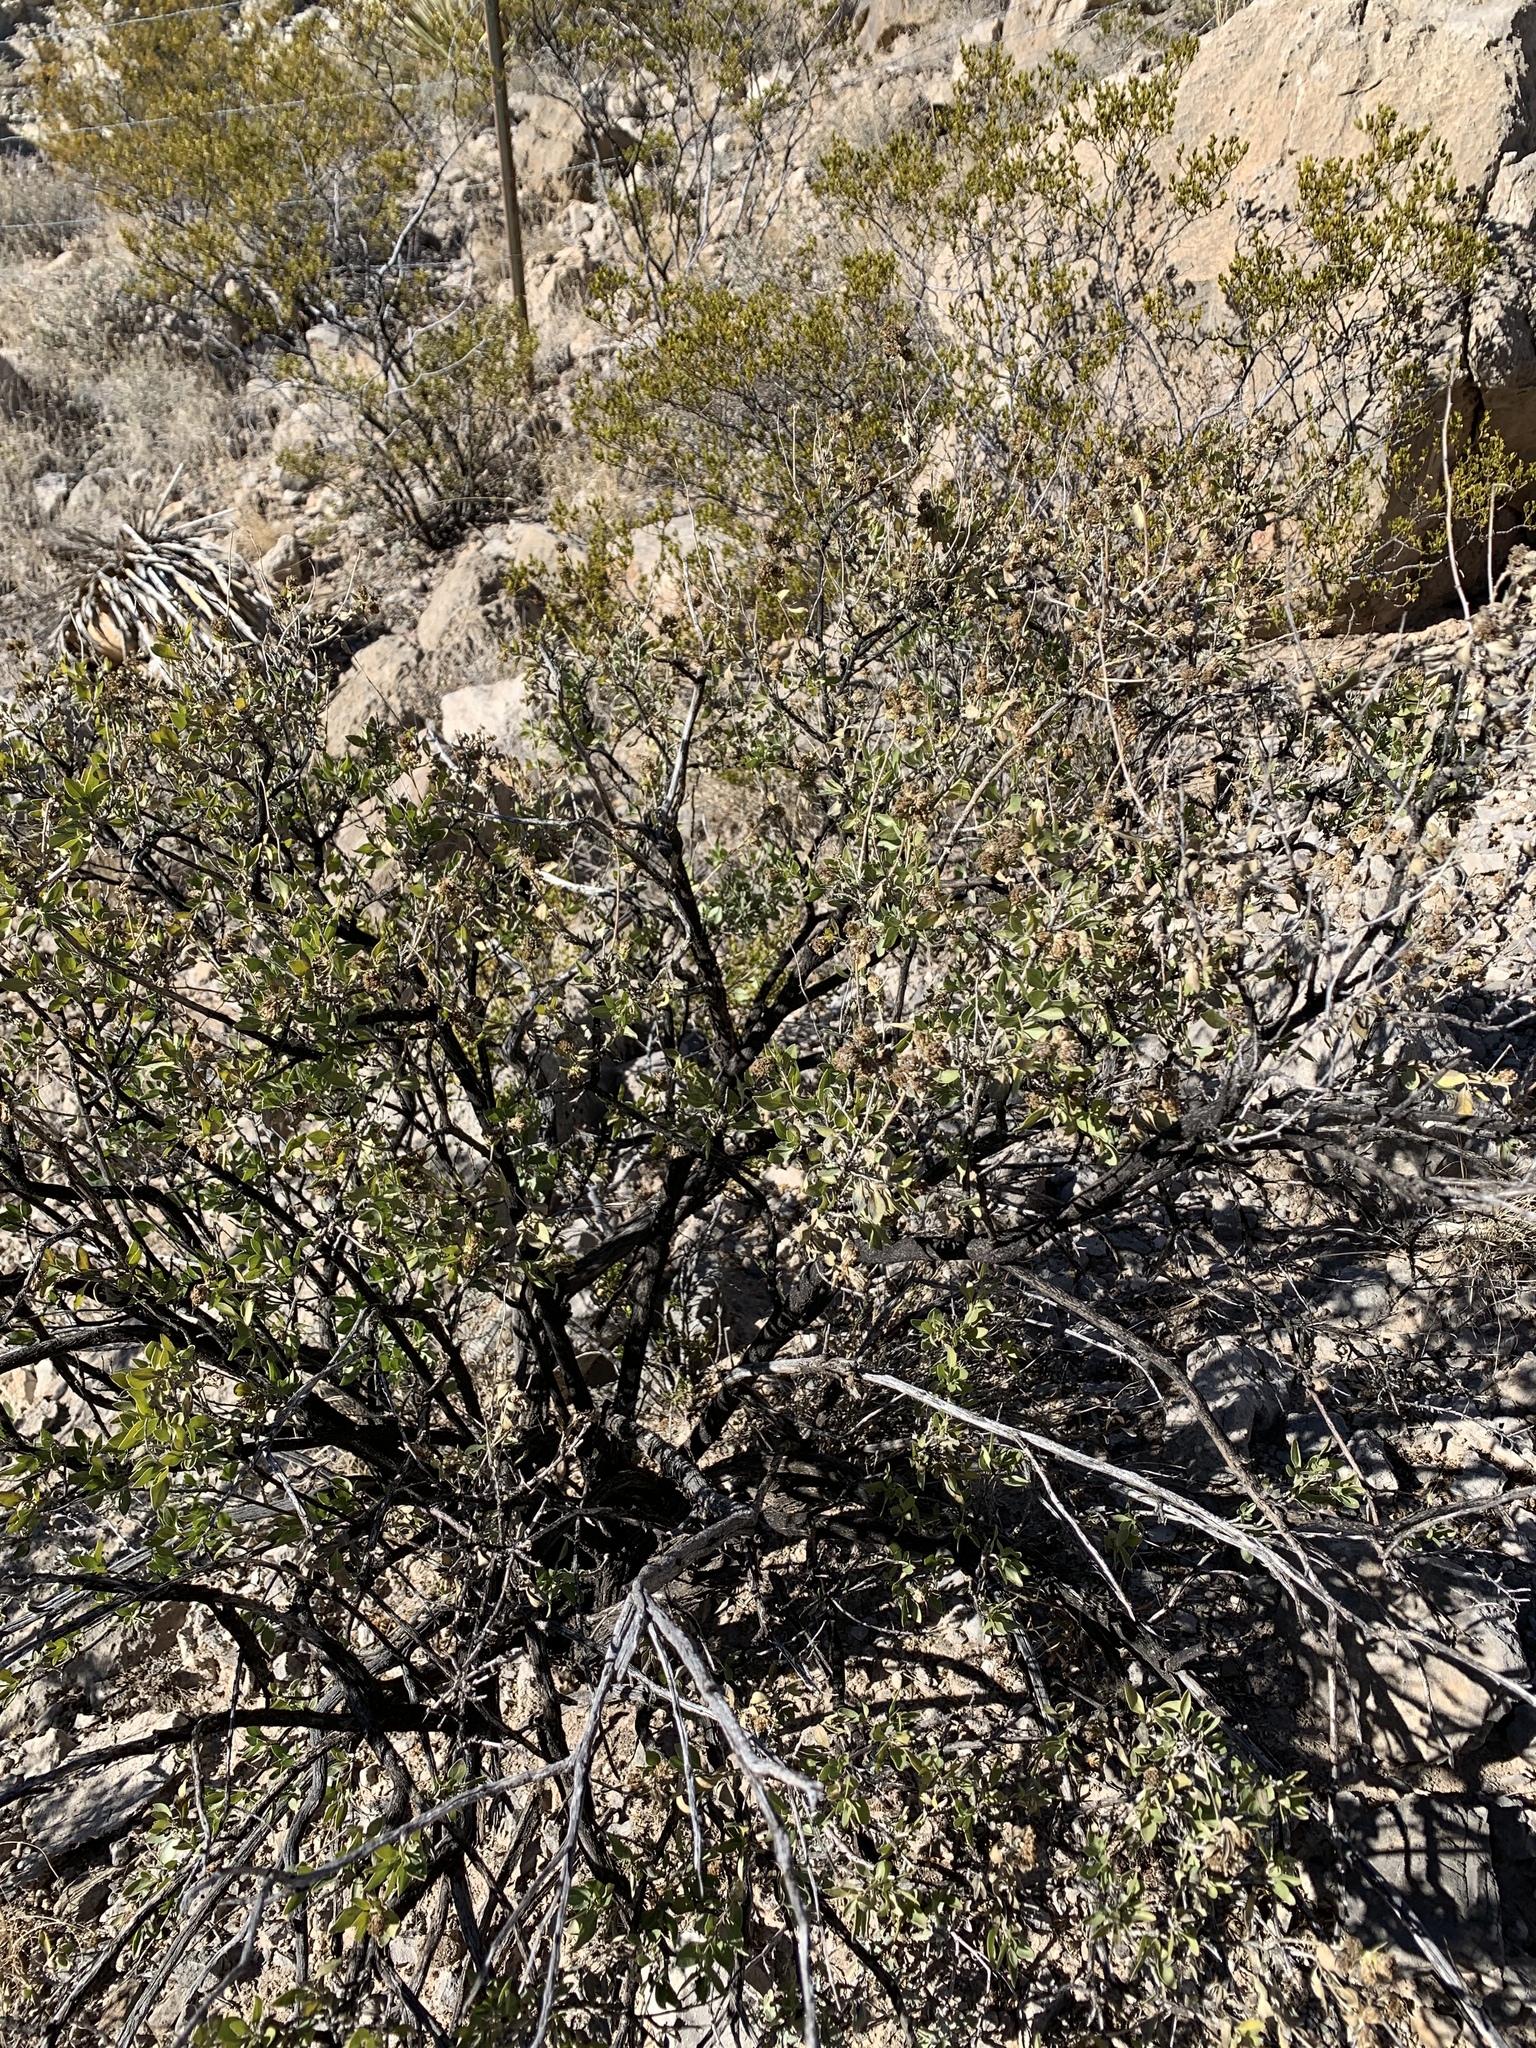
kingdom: Plantae
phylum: Tracheophyta
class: Magnoliopsida
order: Asterales
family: Asteraceae
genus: Flourensia
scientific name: Flourensia cernua
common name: Varnishbush
